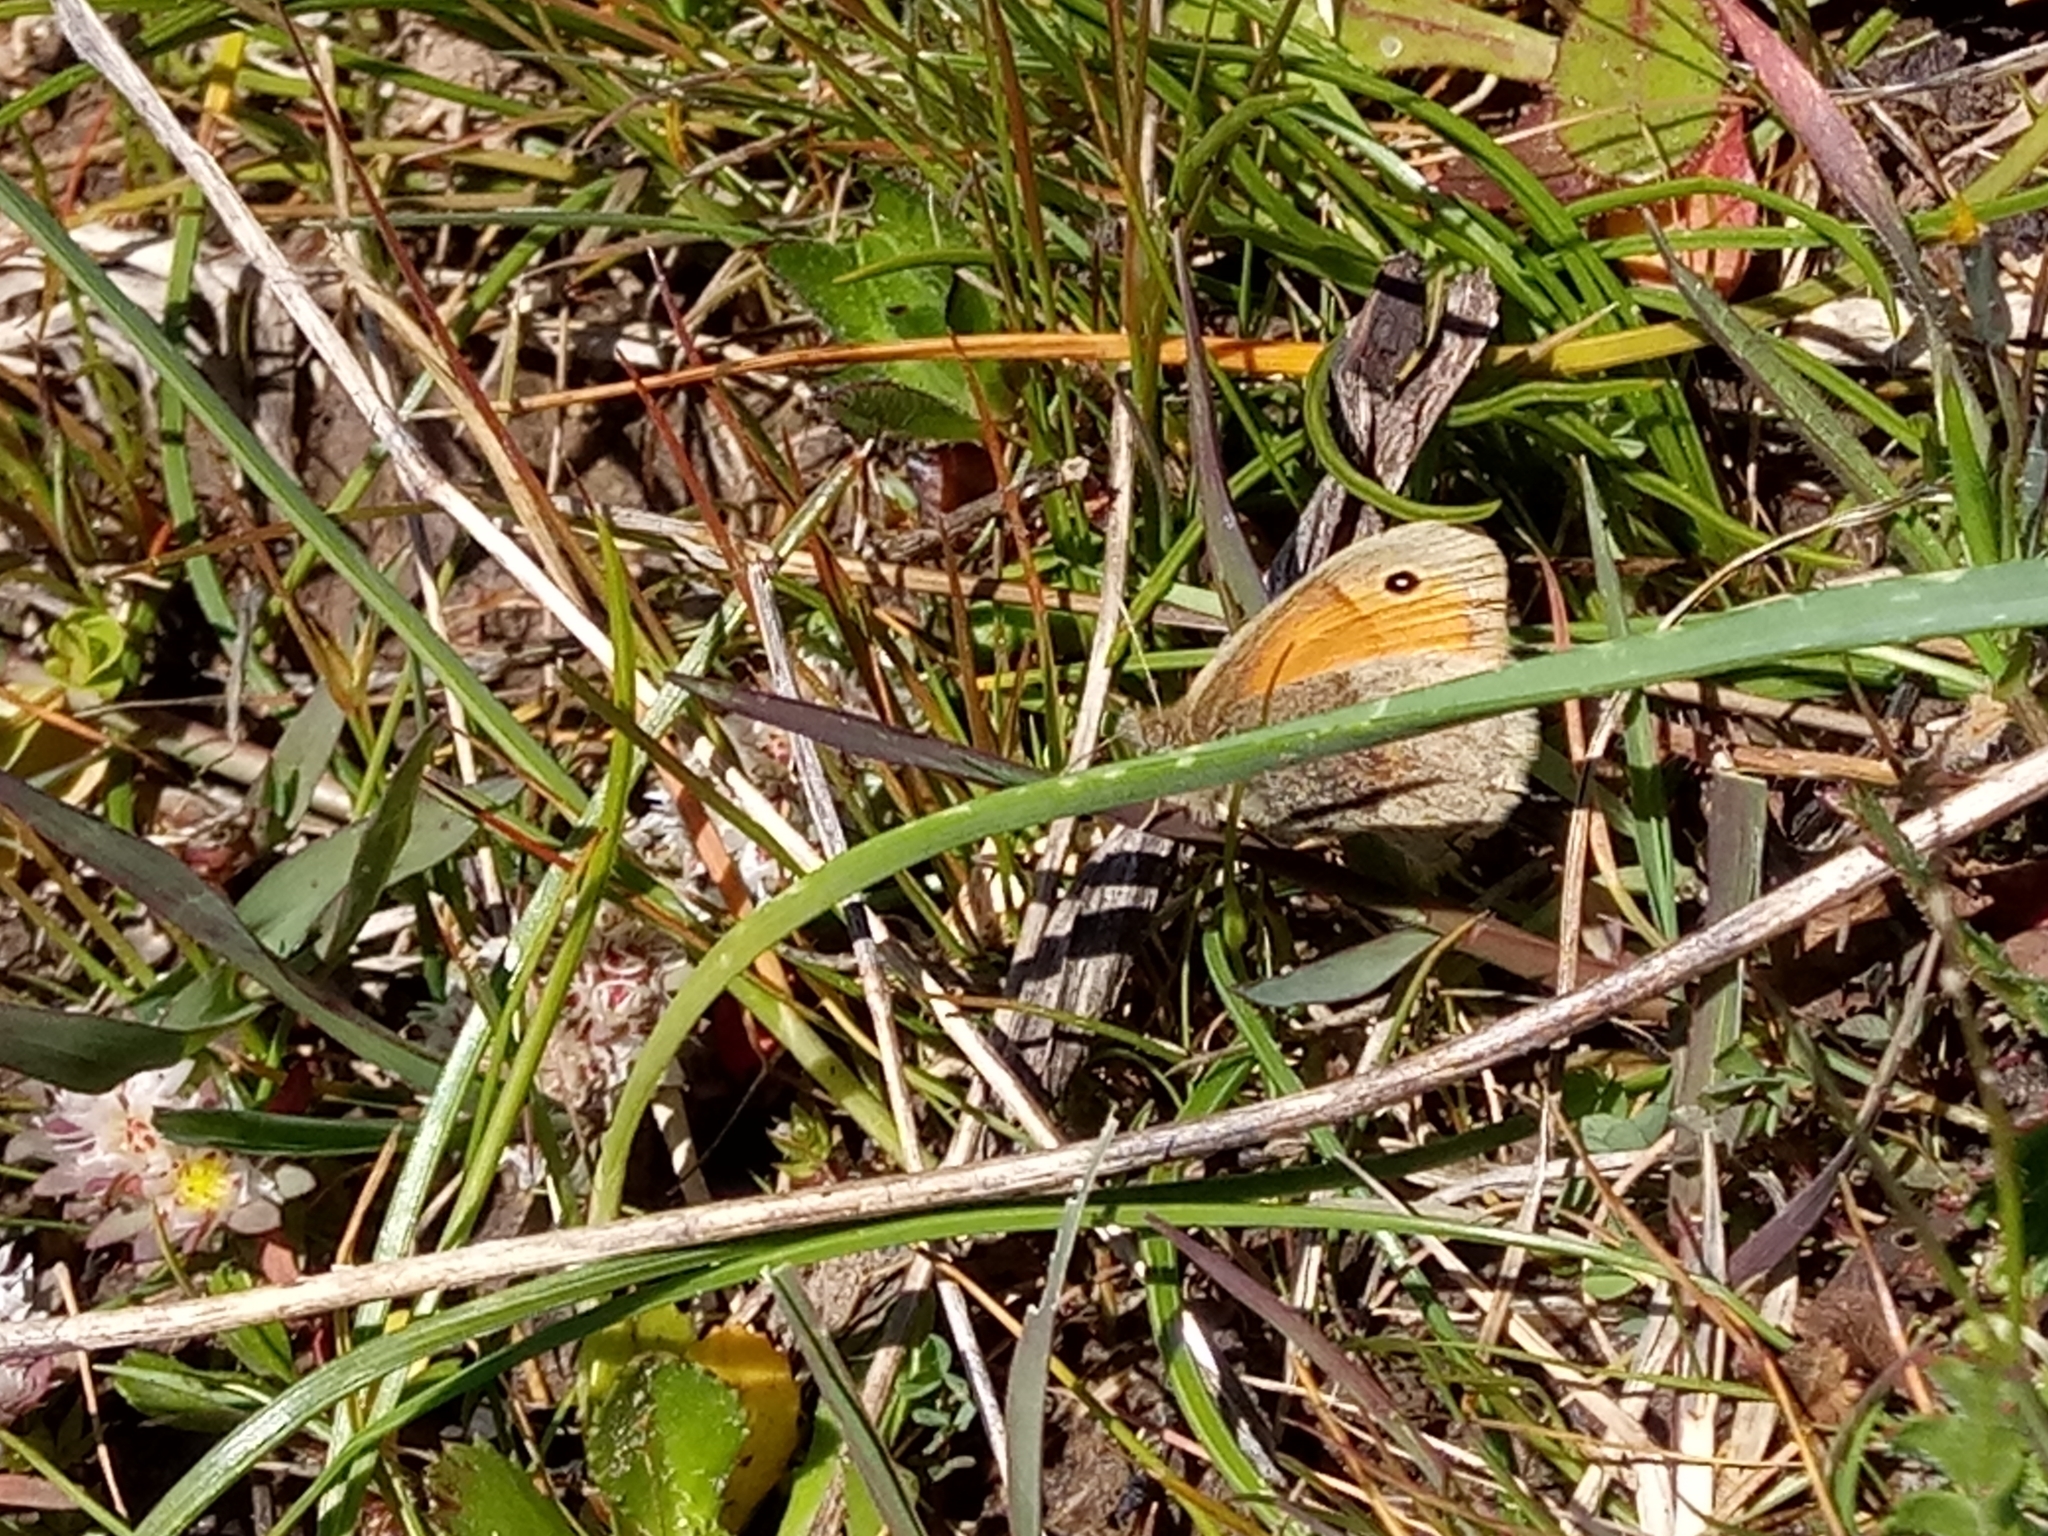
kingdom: Animalia
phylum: Arthropoda
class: Insecta
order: Lepidoptera
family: Nymphalidae
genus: Coenonympha
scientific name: Coenonympha pamphilus
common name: Small heath
